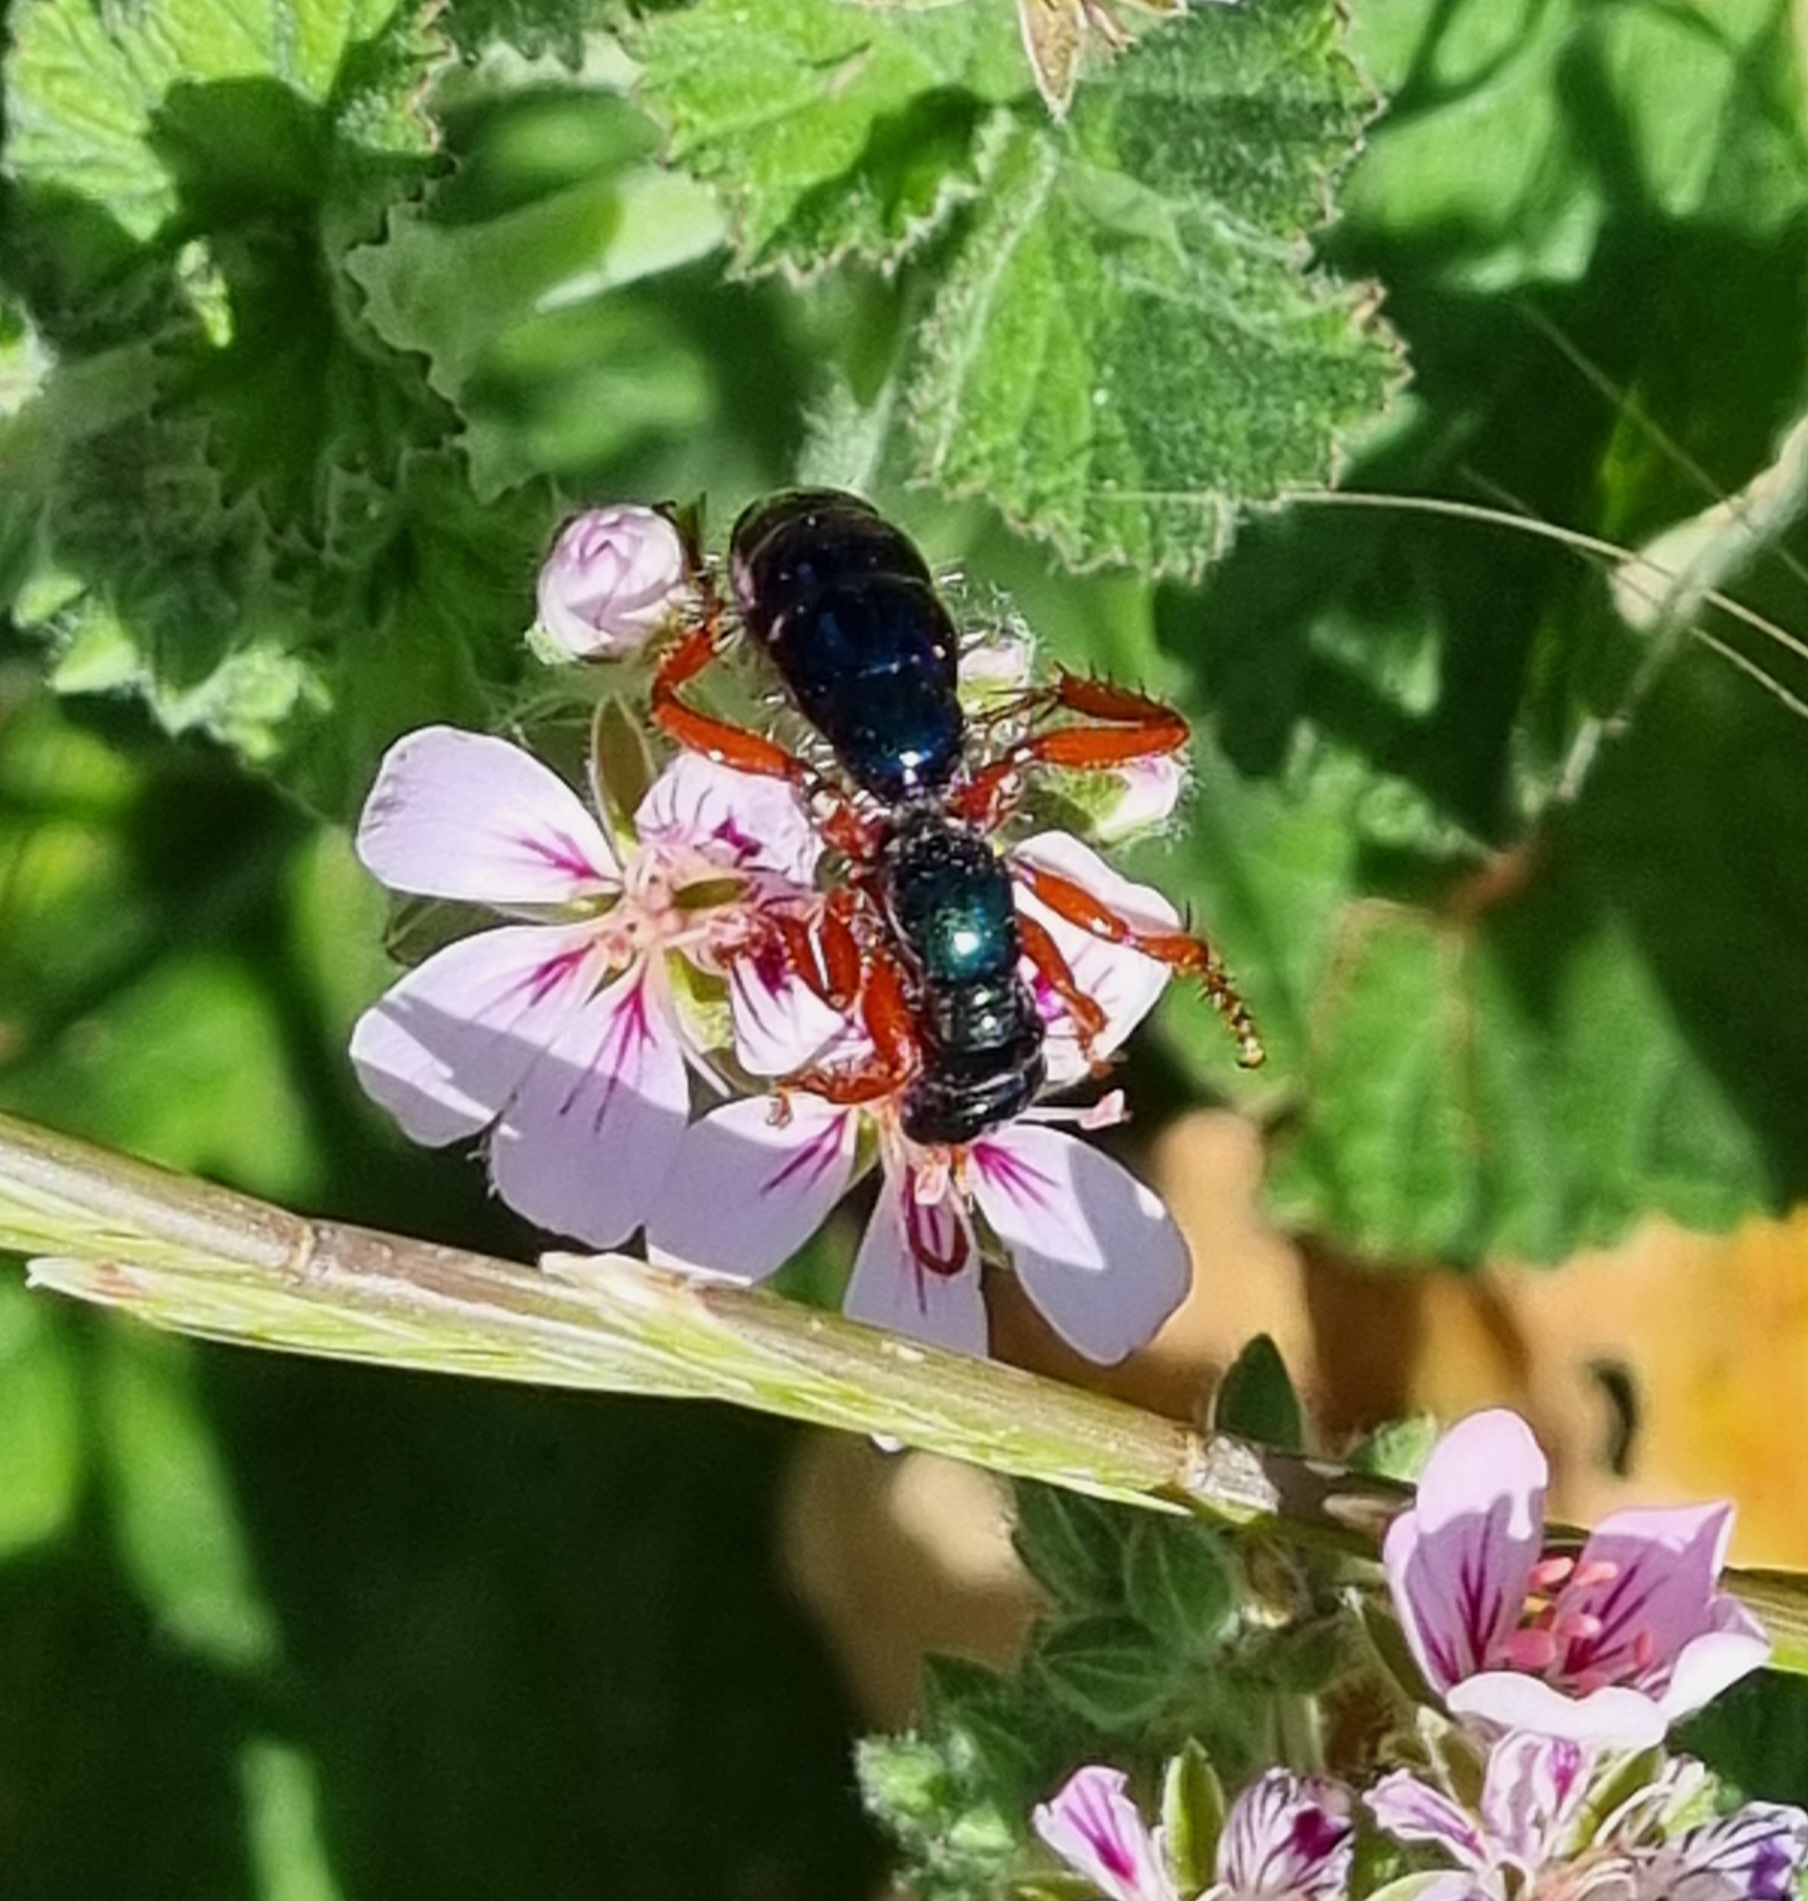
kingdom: Animalia
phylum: Arthropoda
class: Insecta
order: Hymenoptera
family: Tiphiidae
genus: Diamma
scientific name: Diamma
